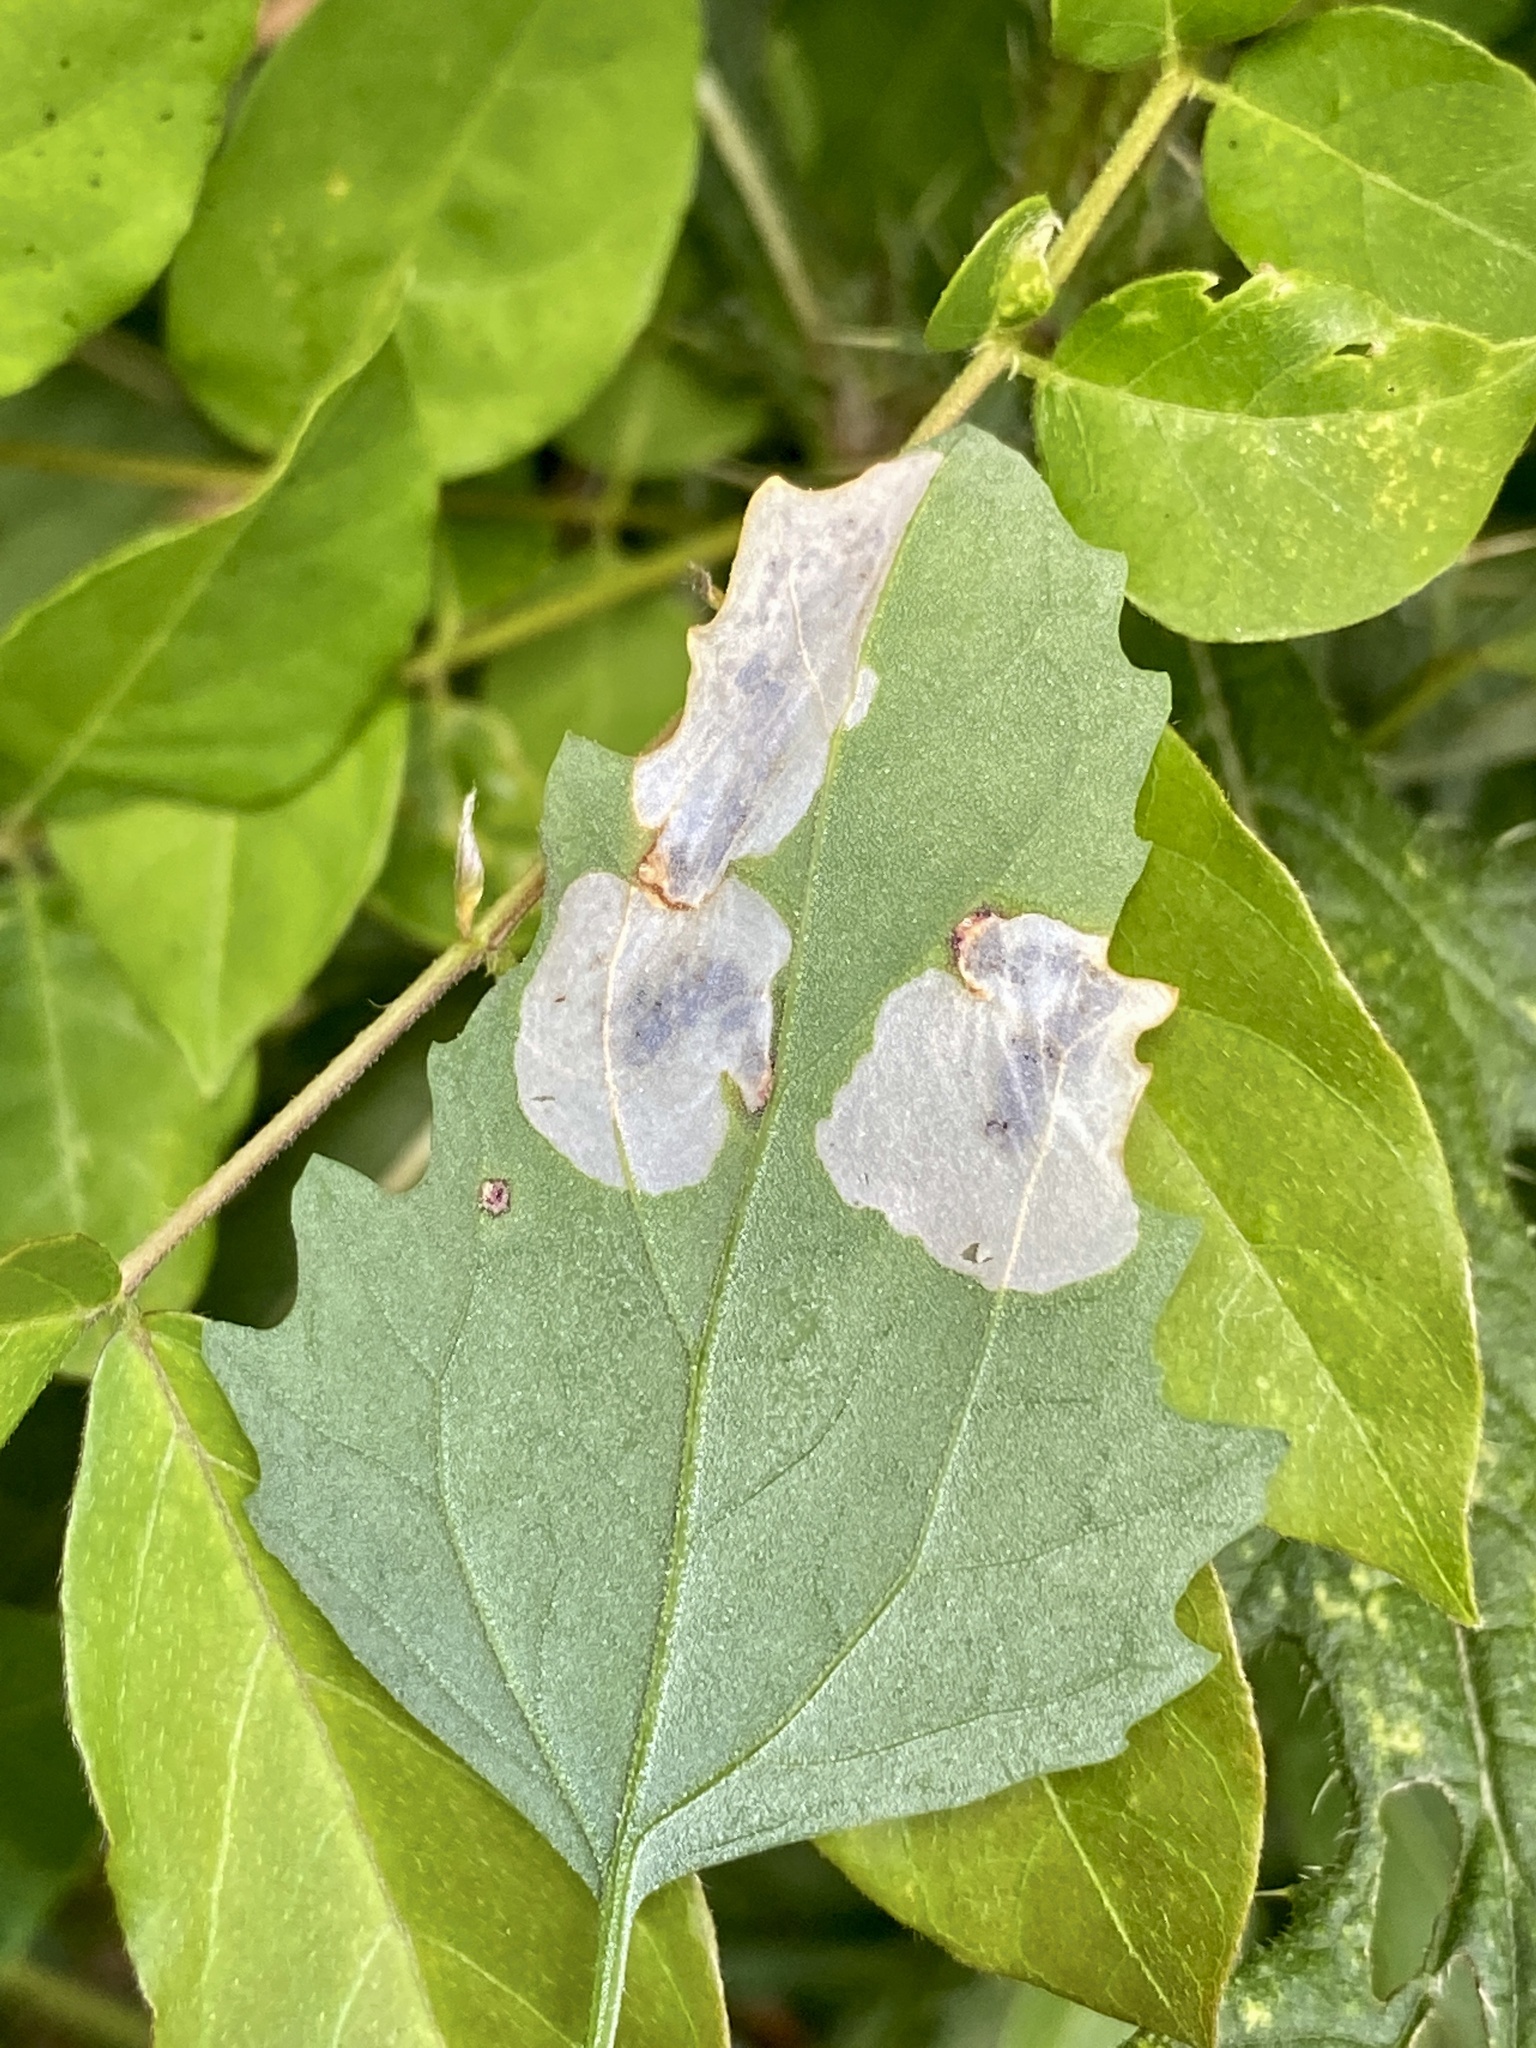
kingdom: Animalia
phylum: Arthropoda
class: Insecta
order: Lepidoptera
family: Gelechiidae
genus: Chrysoesthia
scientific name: Chrysoesthia sexguttella
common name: Moth
